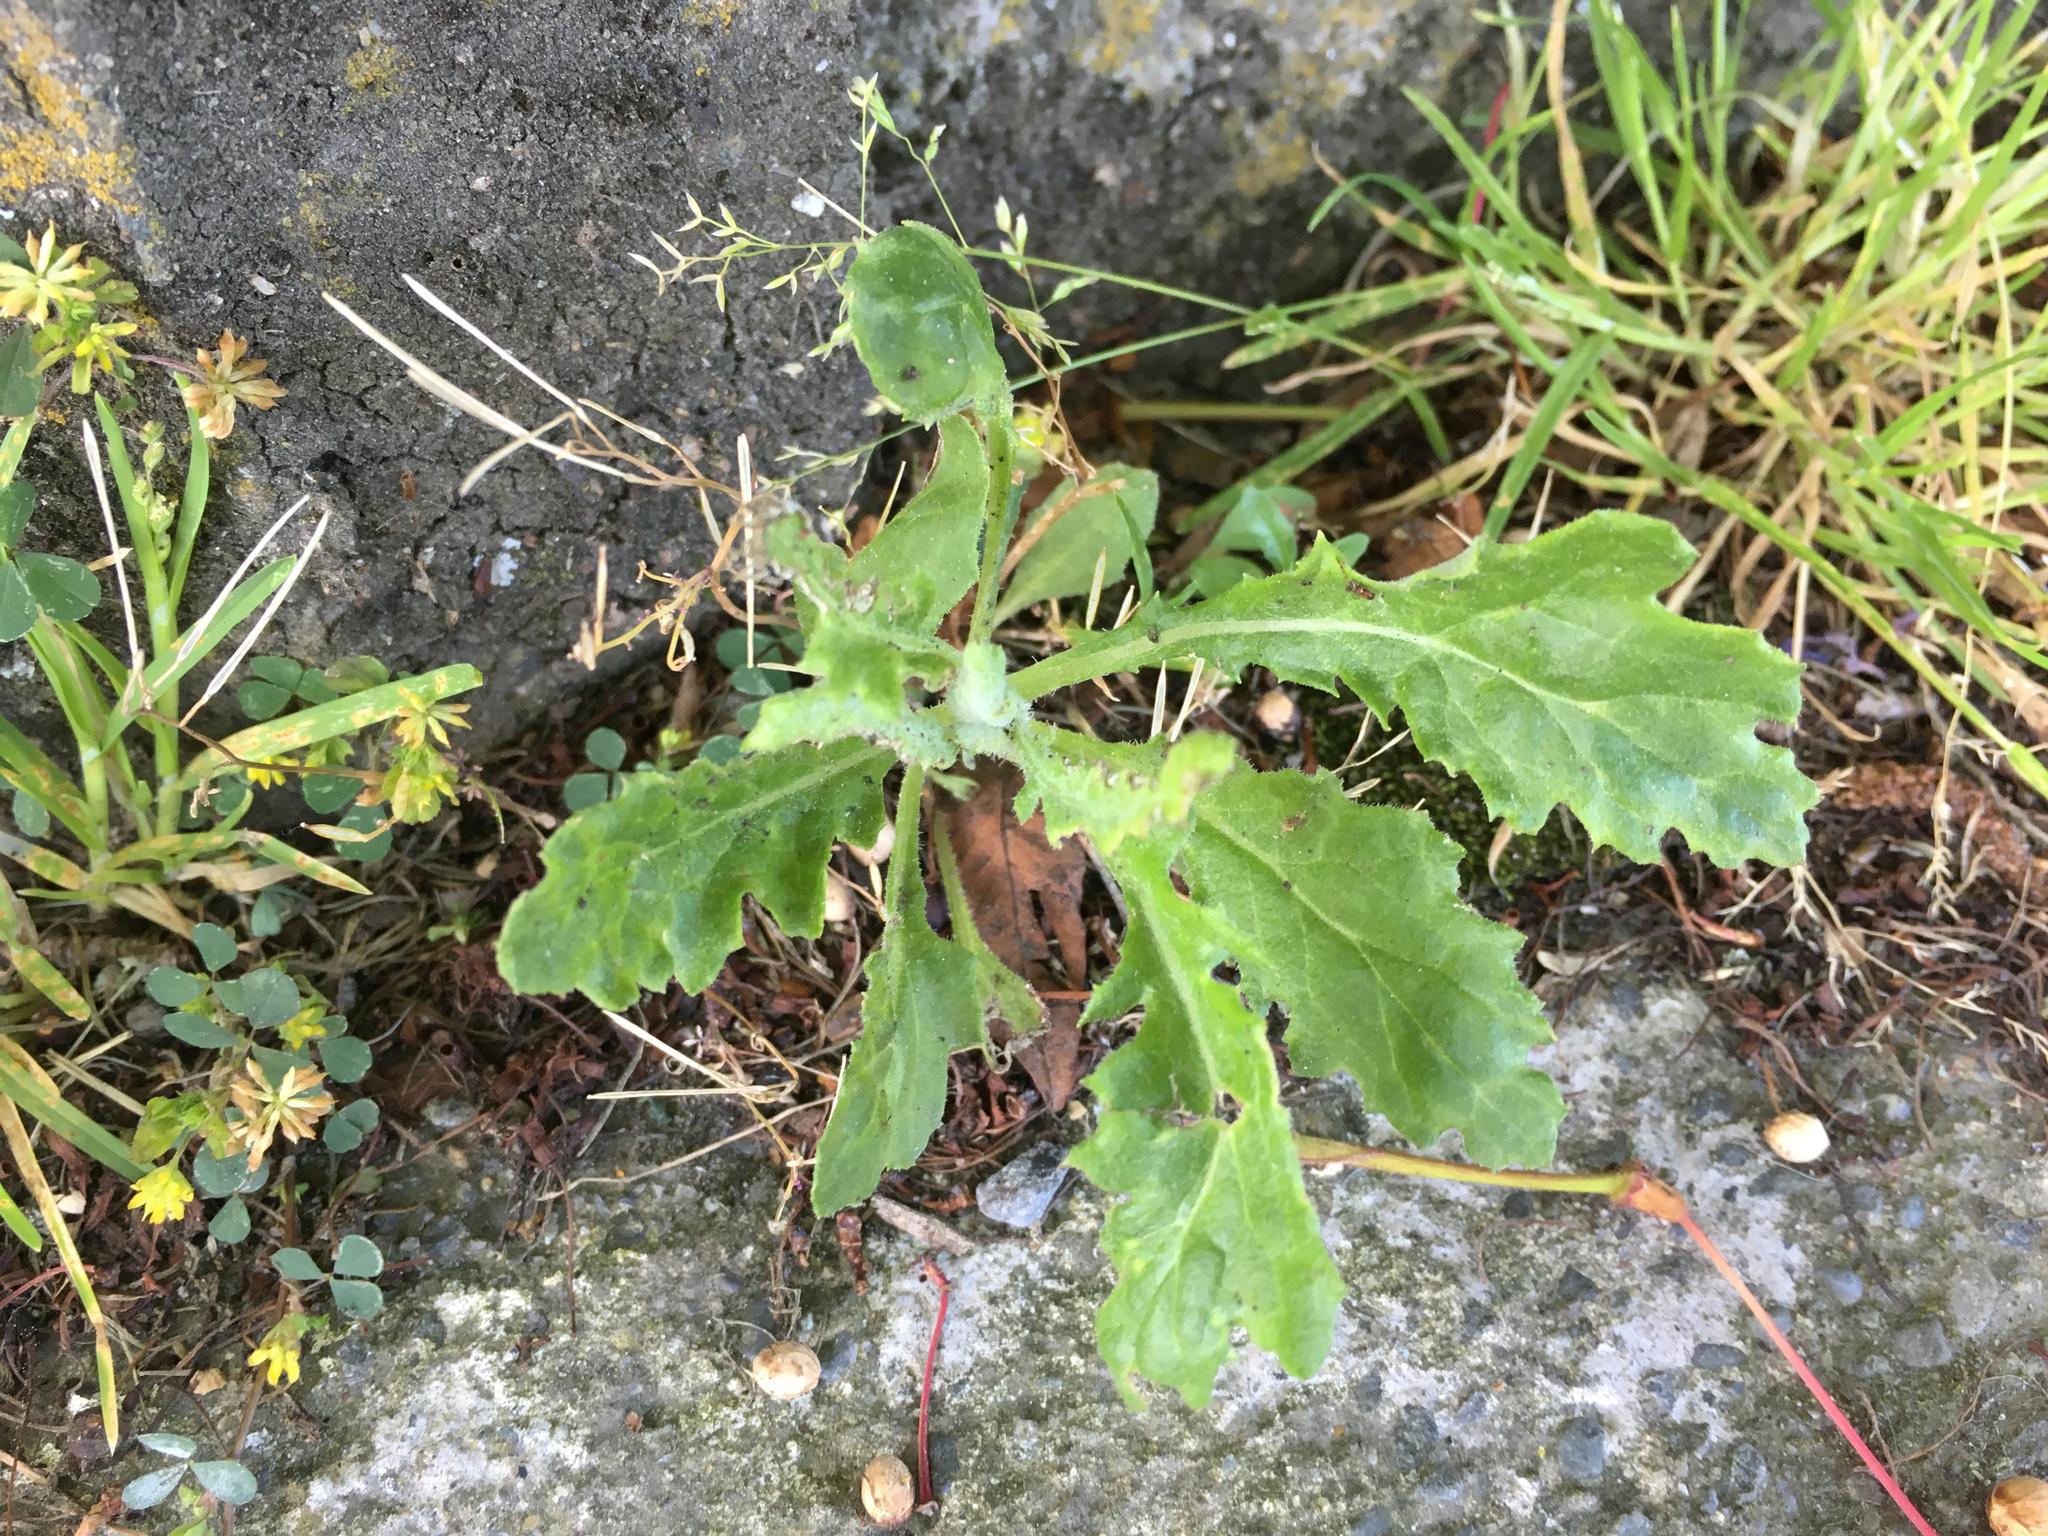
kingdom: Plantae
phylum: Tracheophyta
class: Magnoliopsida
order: Asterales
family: Asteraceae
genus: Senecio
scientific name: Senecio glomeratus
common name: Cutleaf burnweed
